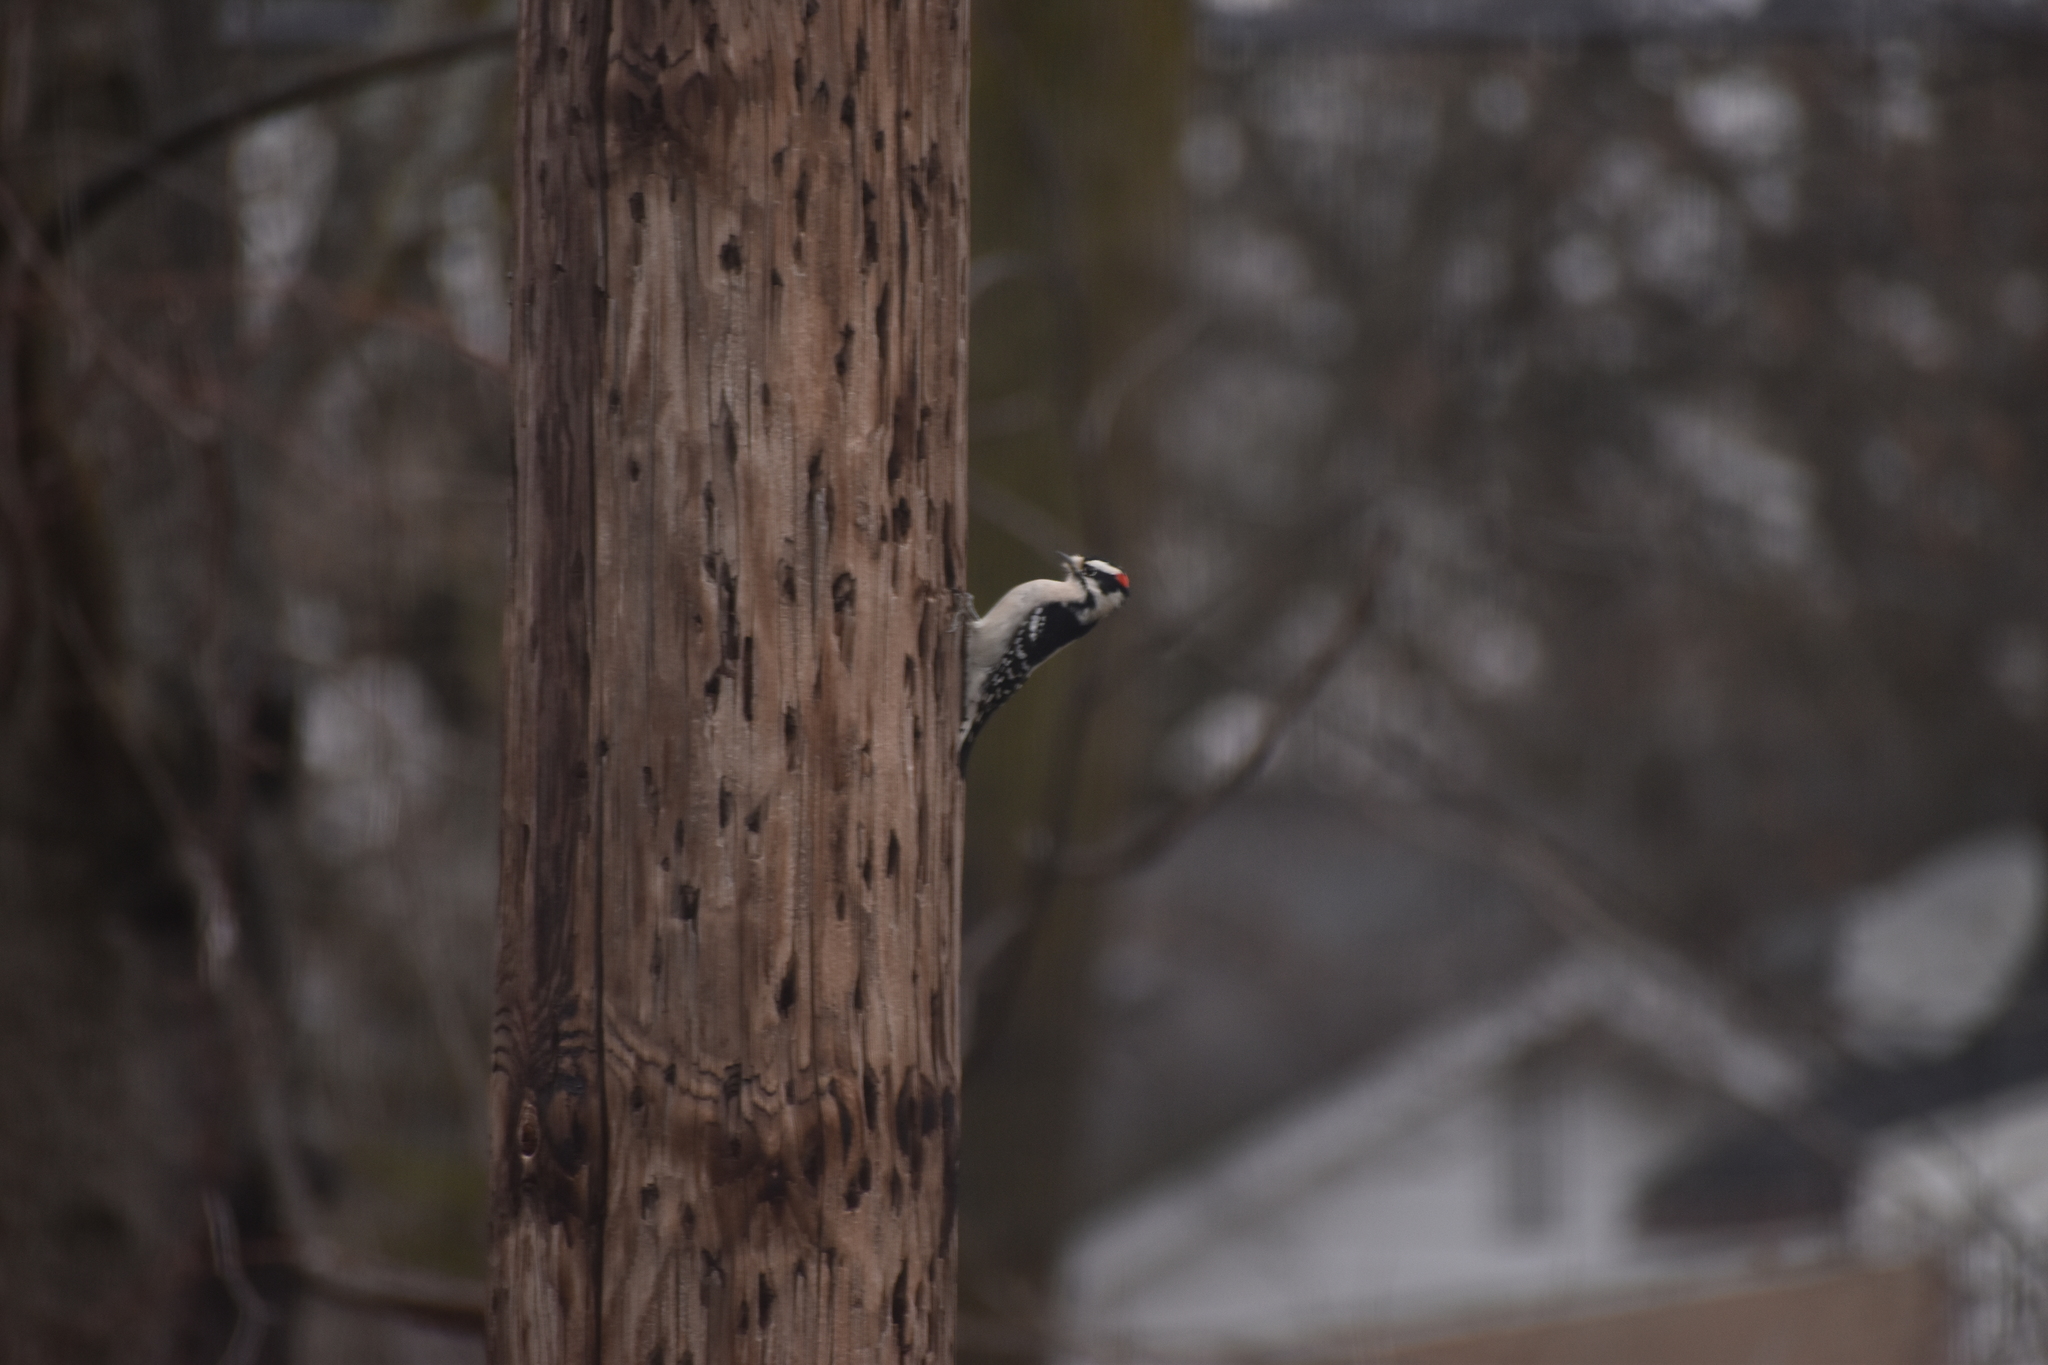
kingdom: Animalia
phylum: Chordata
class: Aves
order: Piciformes
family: Picidae
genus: Dryobates
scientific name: Dryobates pubescens
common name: Downy woodpecker
